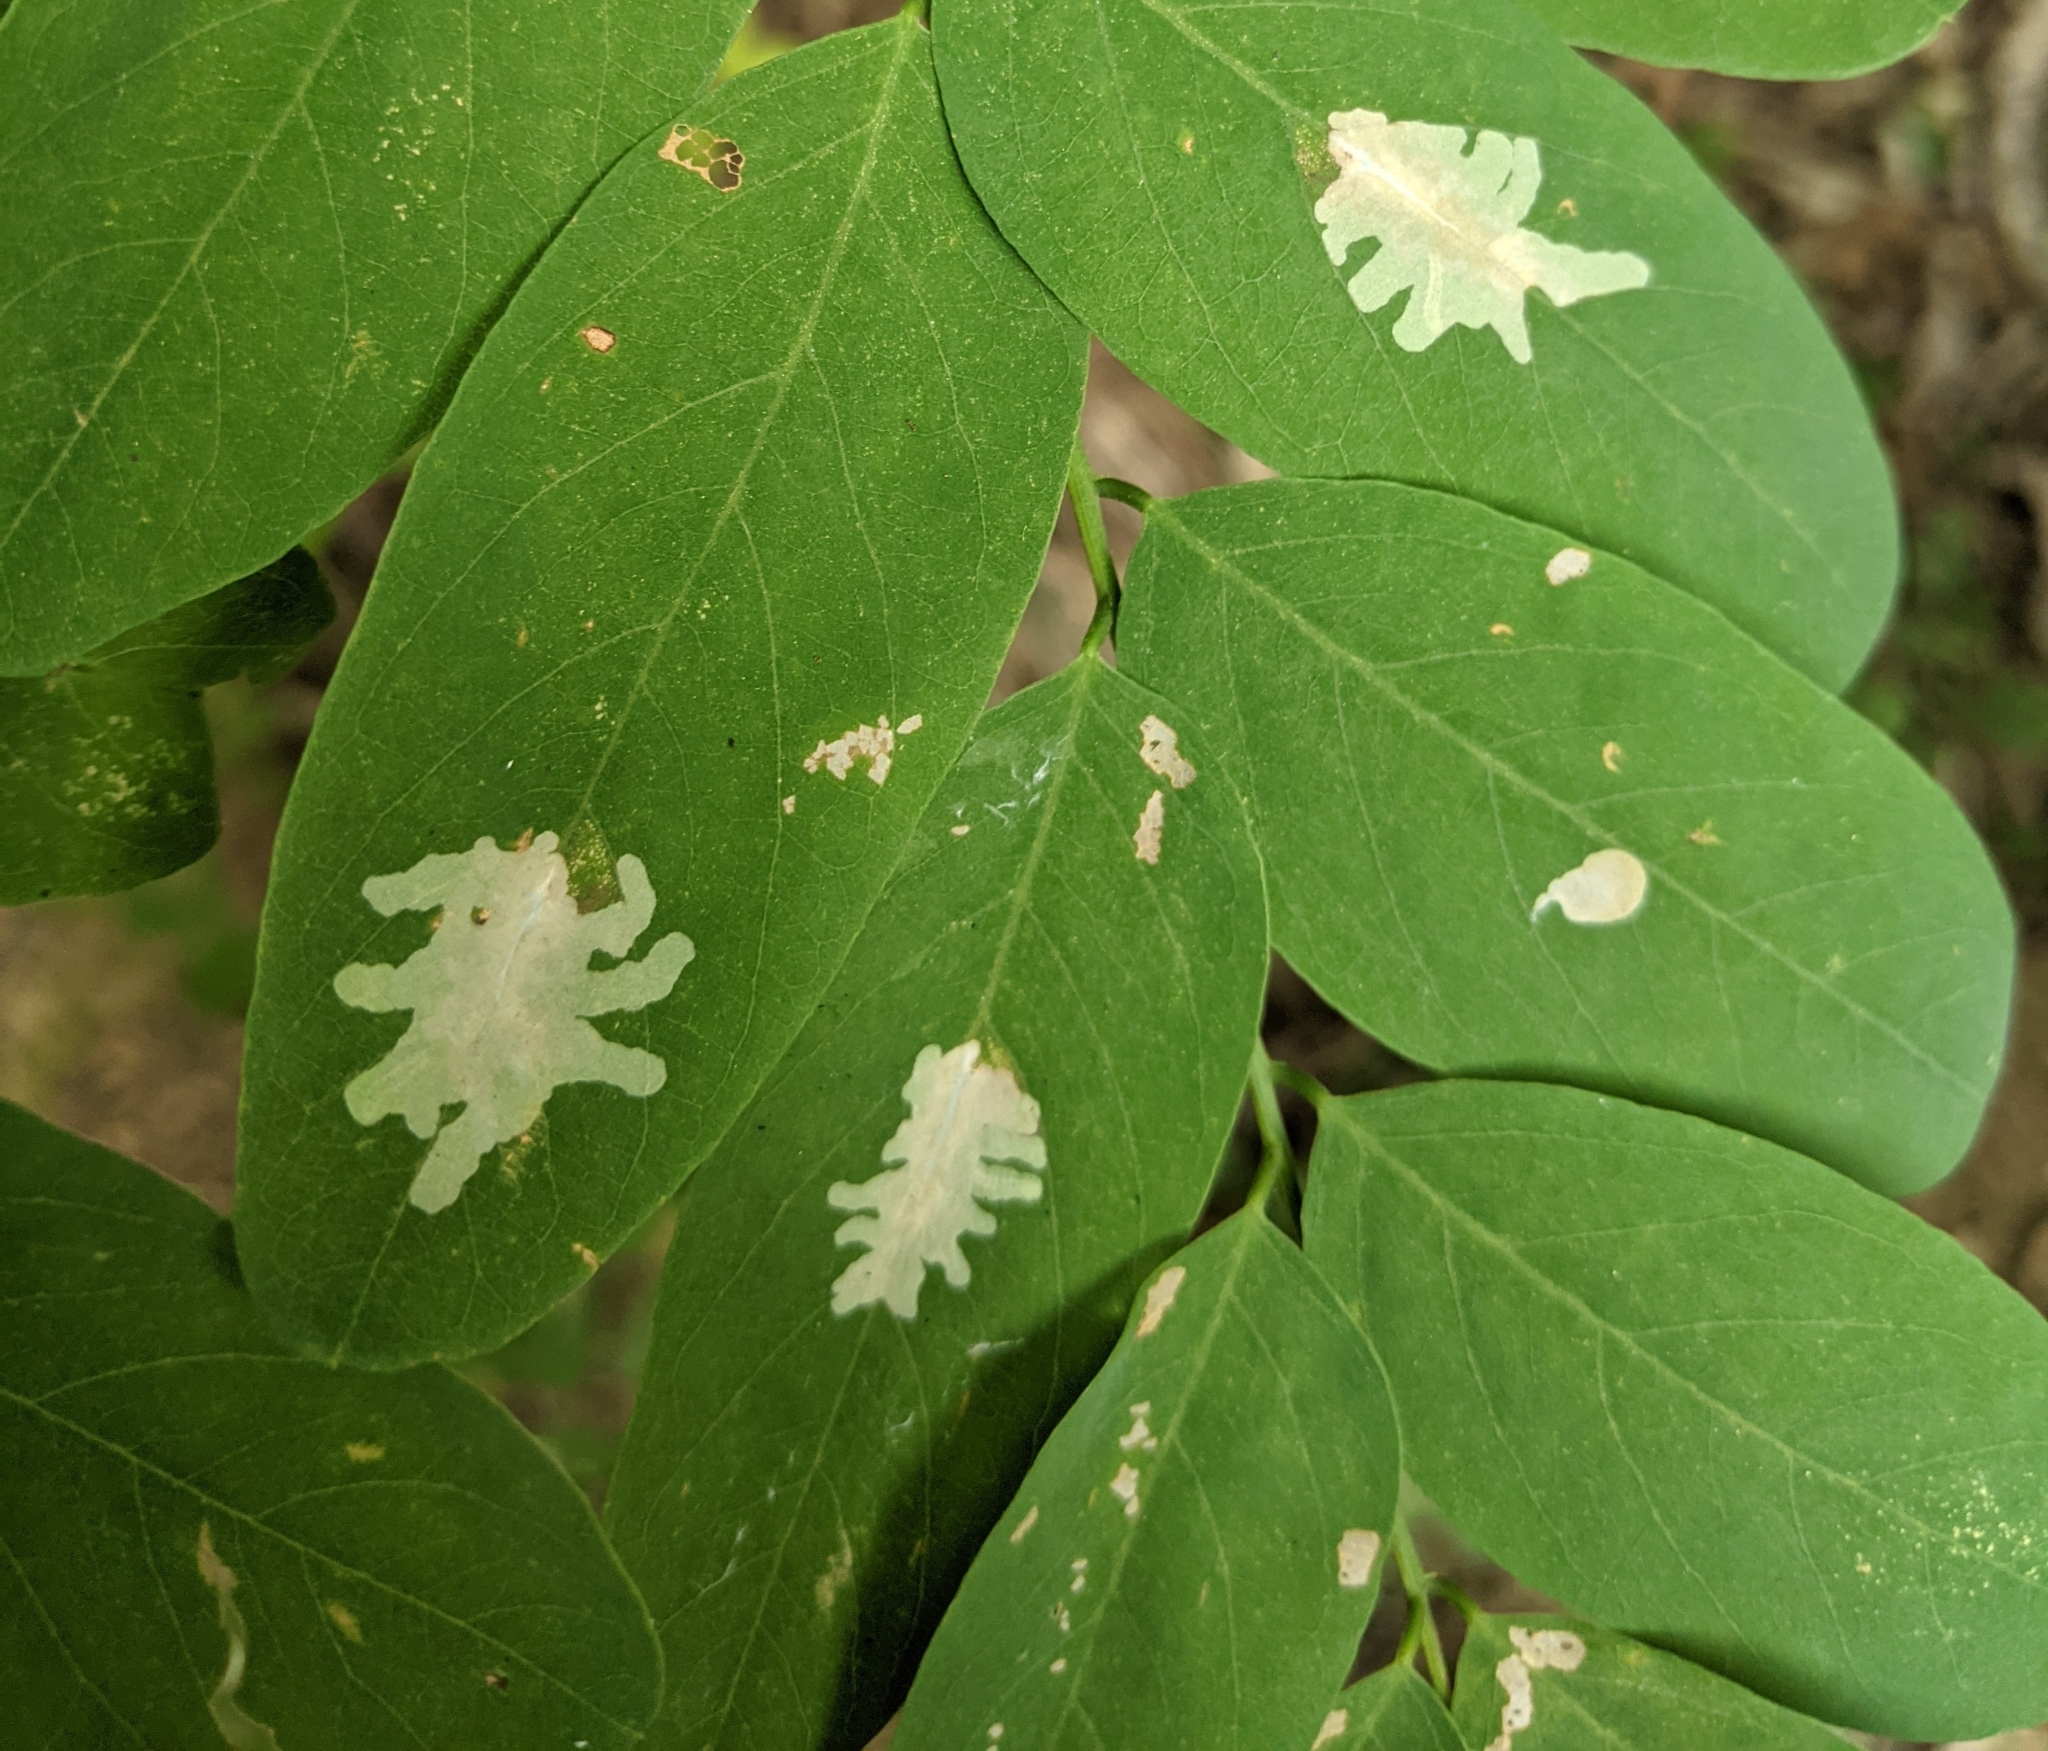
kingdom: Animalia
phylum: Arthropoda
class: Insecta
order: Lepidoptera
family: Gracillariidae
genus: Parectopa
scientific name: Parectopa robiniella
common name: Locust digitate leafminer
